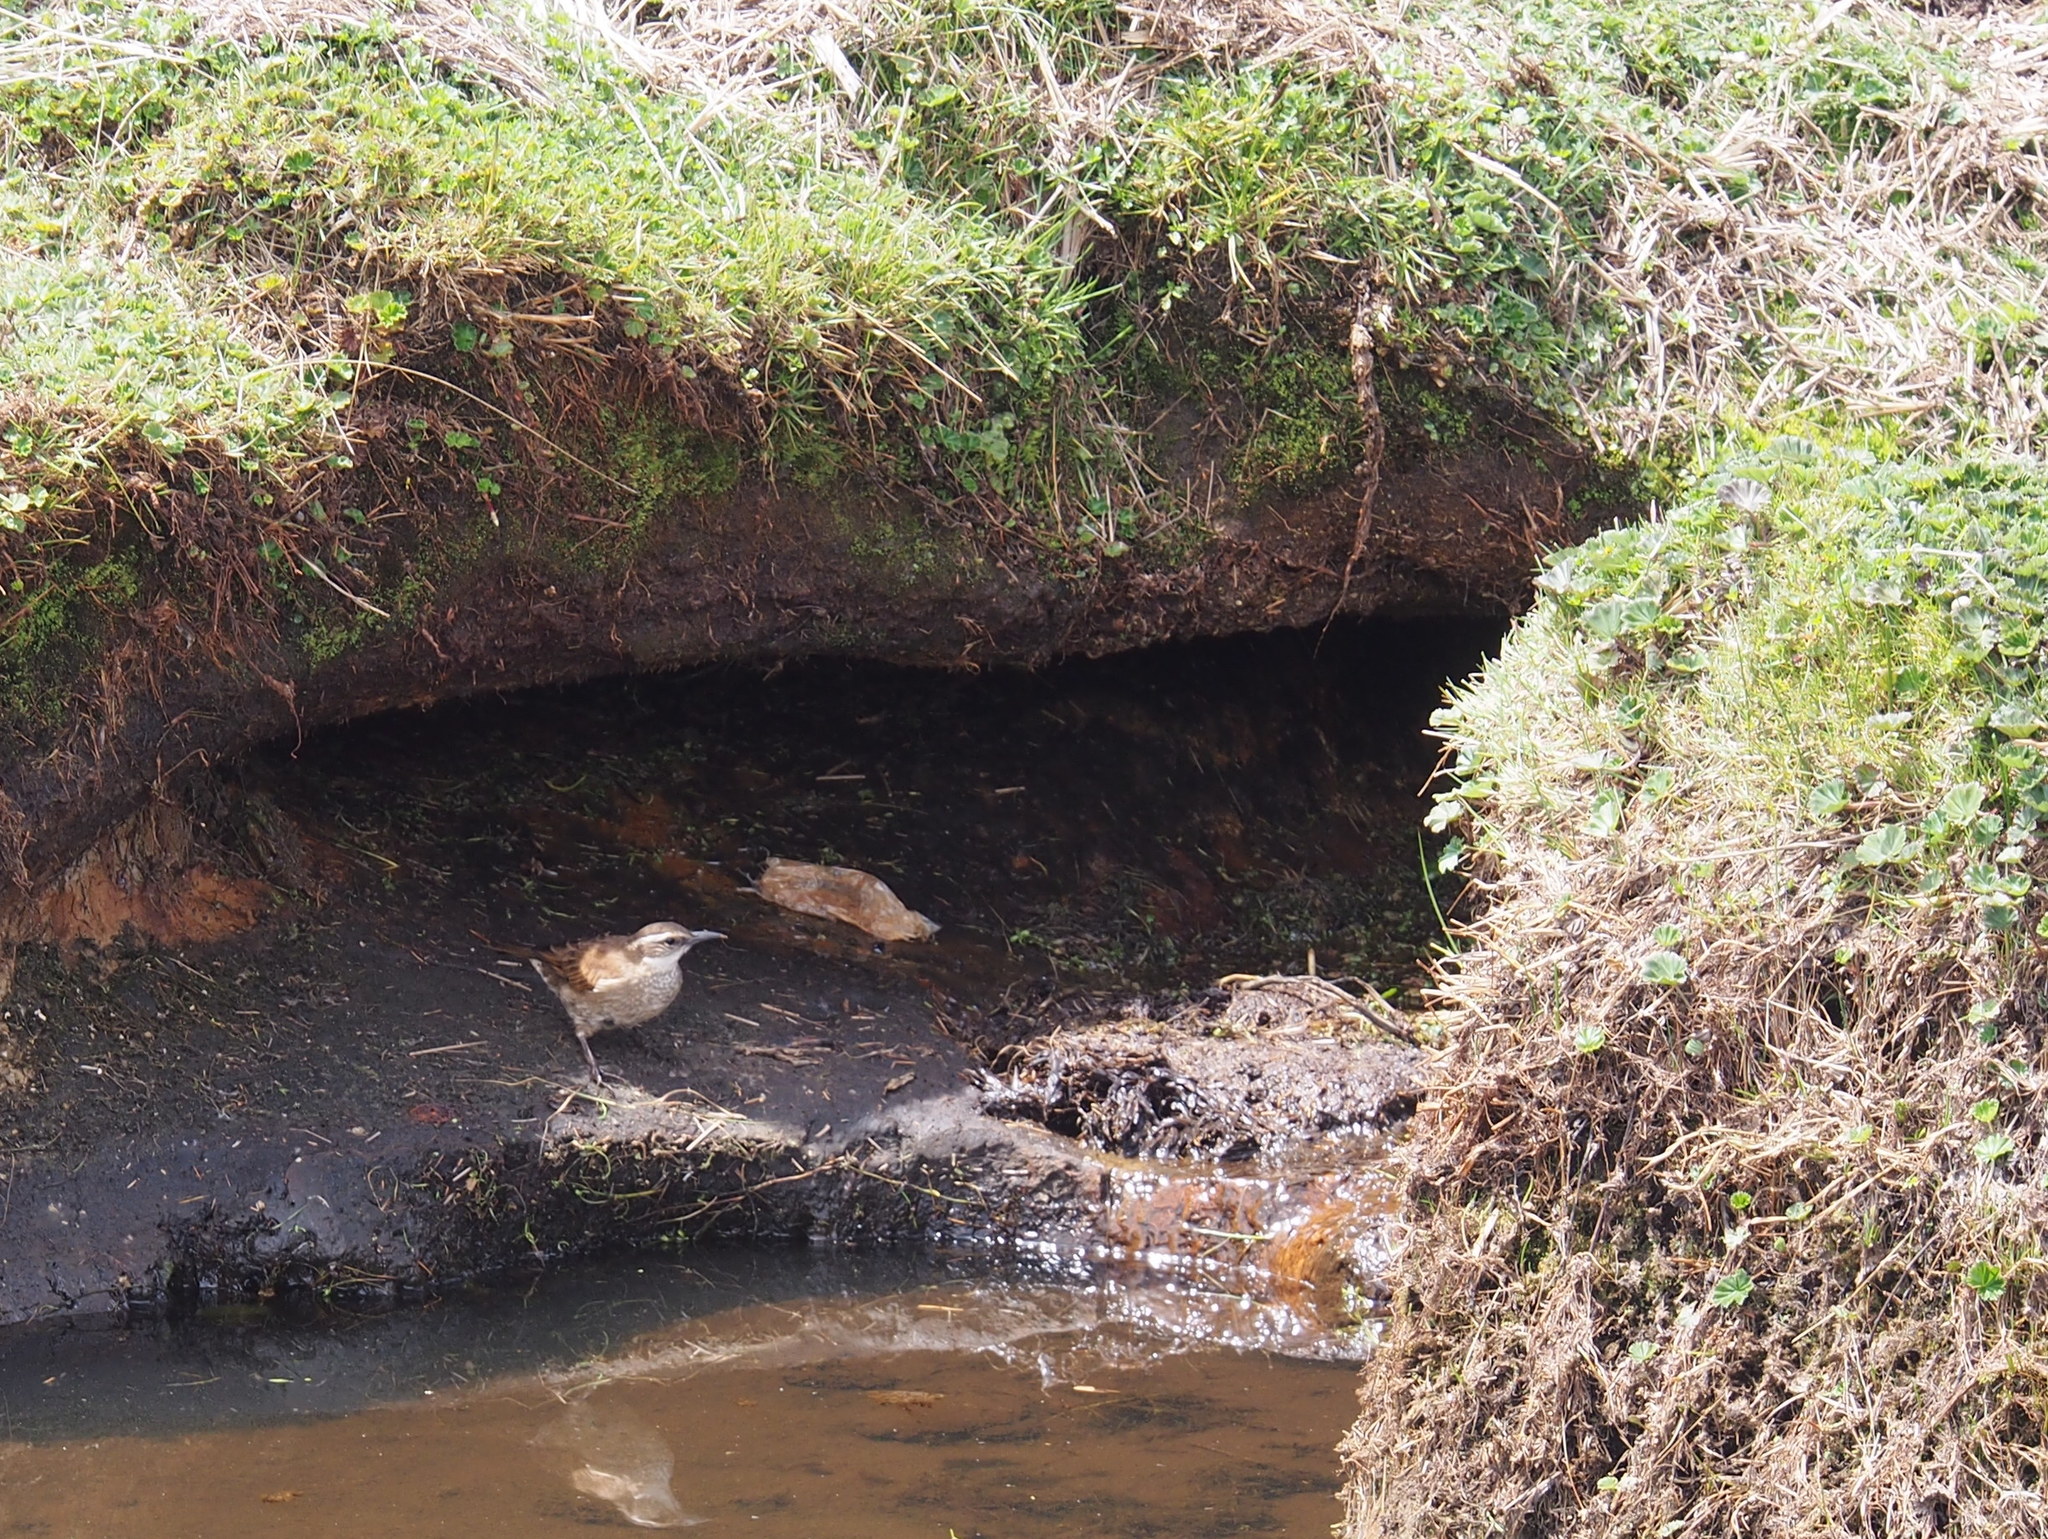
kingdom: Animalia
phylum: Chordata
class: Aves
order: Passeriformes
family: Furnariidae
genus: Cinclodes
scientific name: Cinclodes excelsior
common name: Stout-billed cinclodes
